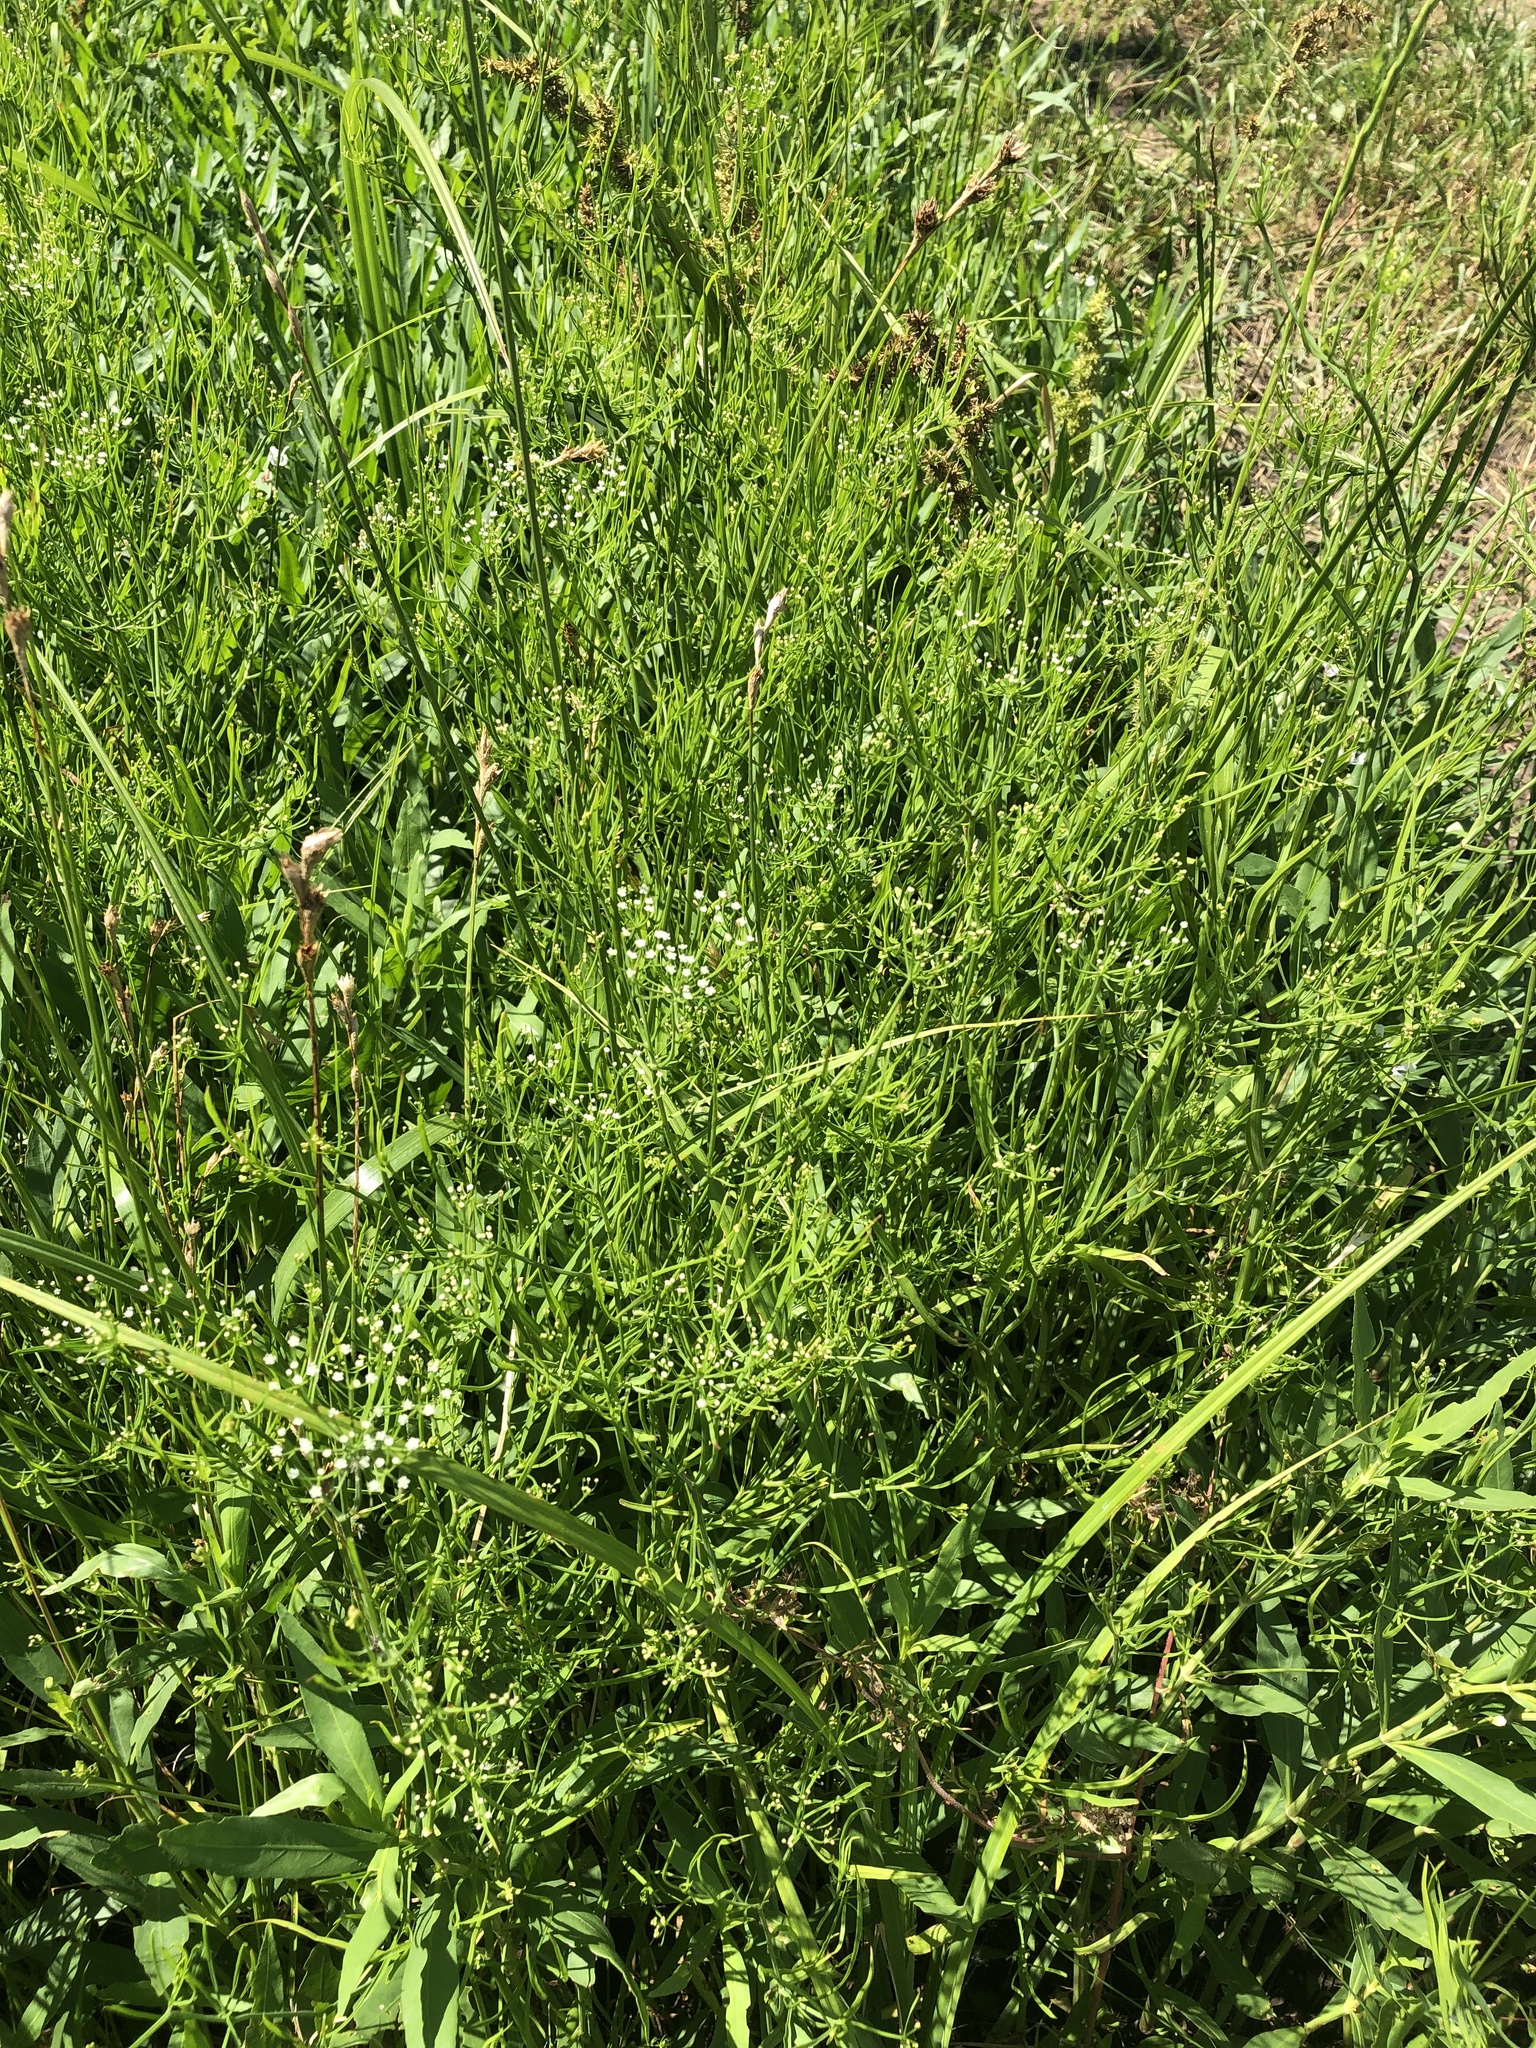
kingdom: Plantae
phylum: Tracheophyta
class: Magnoliopsida
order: Apiales
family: Apiaceae
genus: Cynosciadium
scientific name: Cynosciadium digitatum
